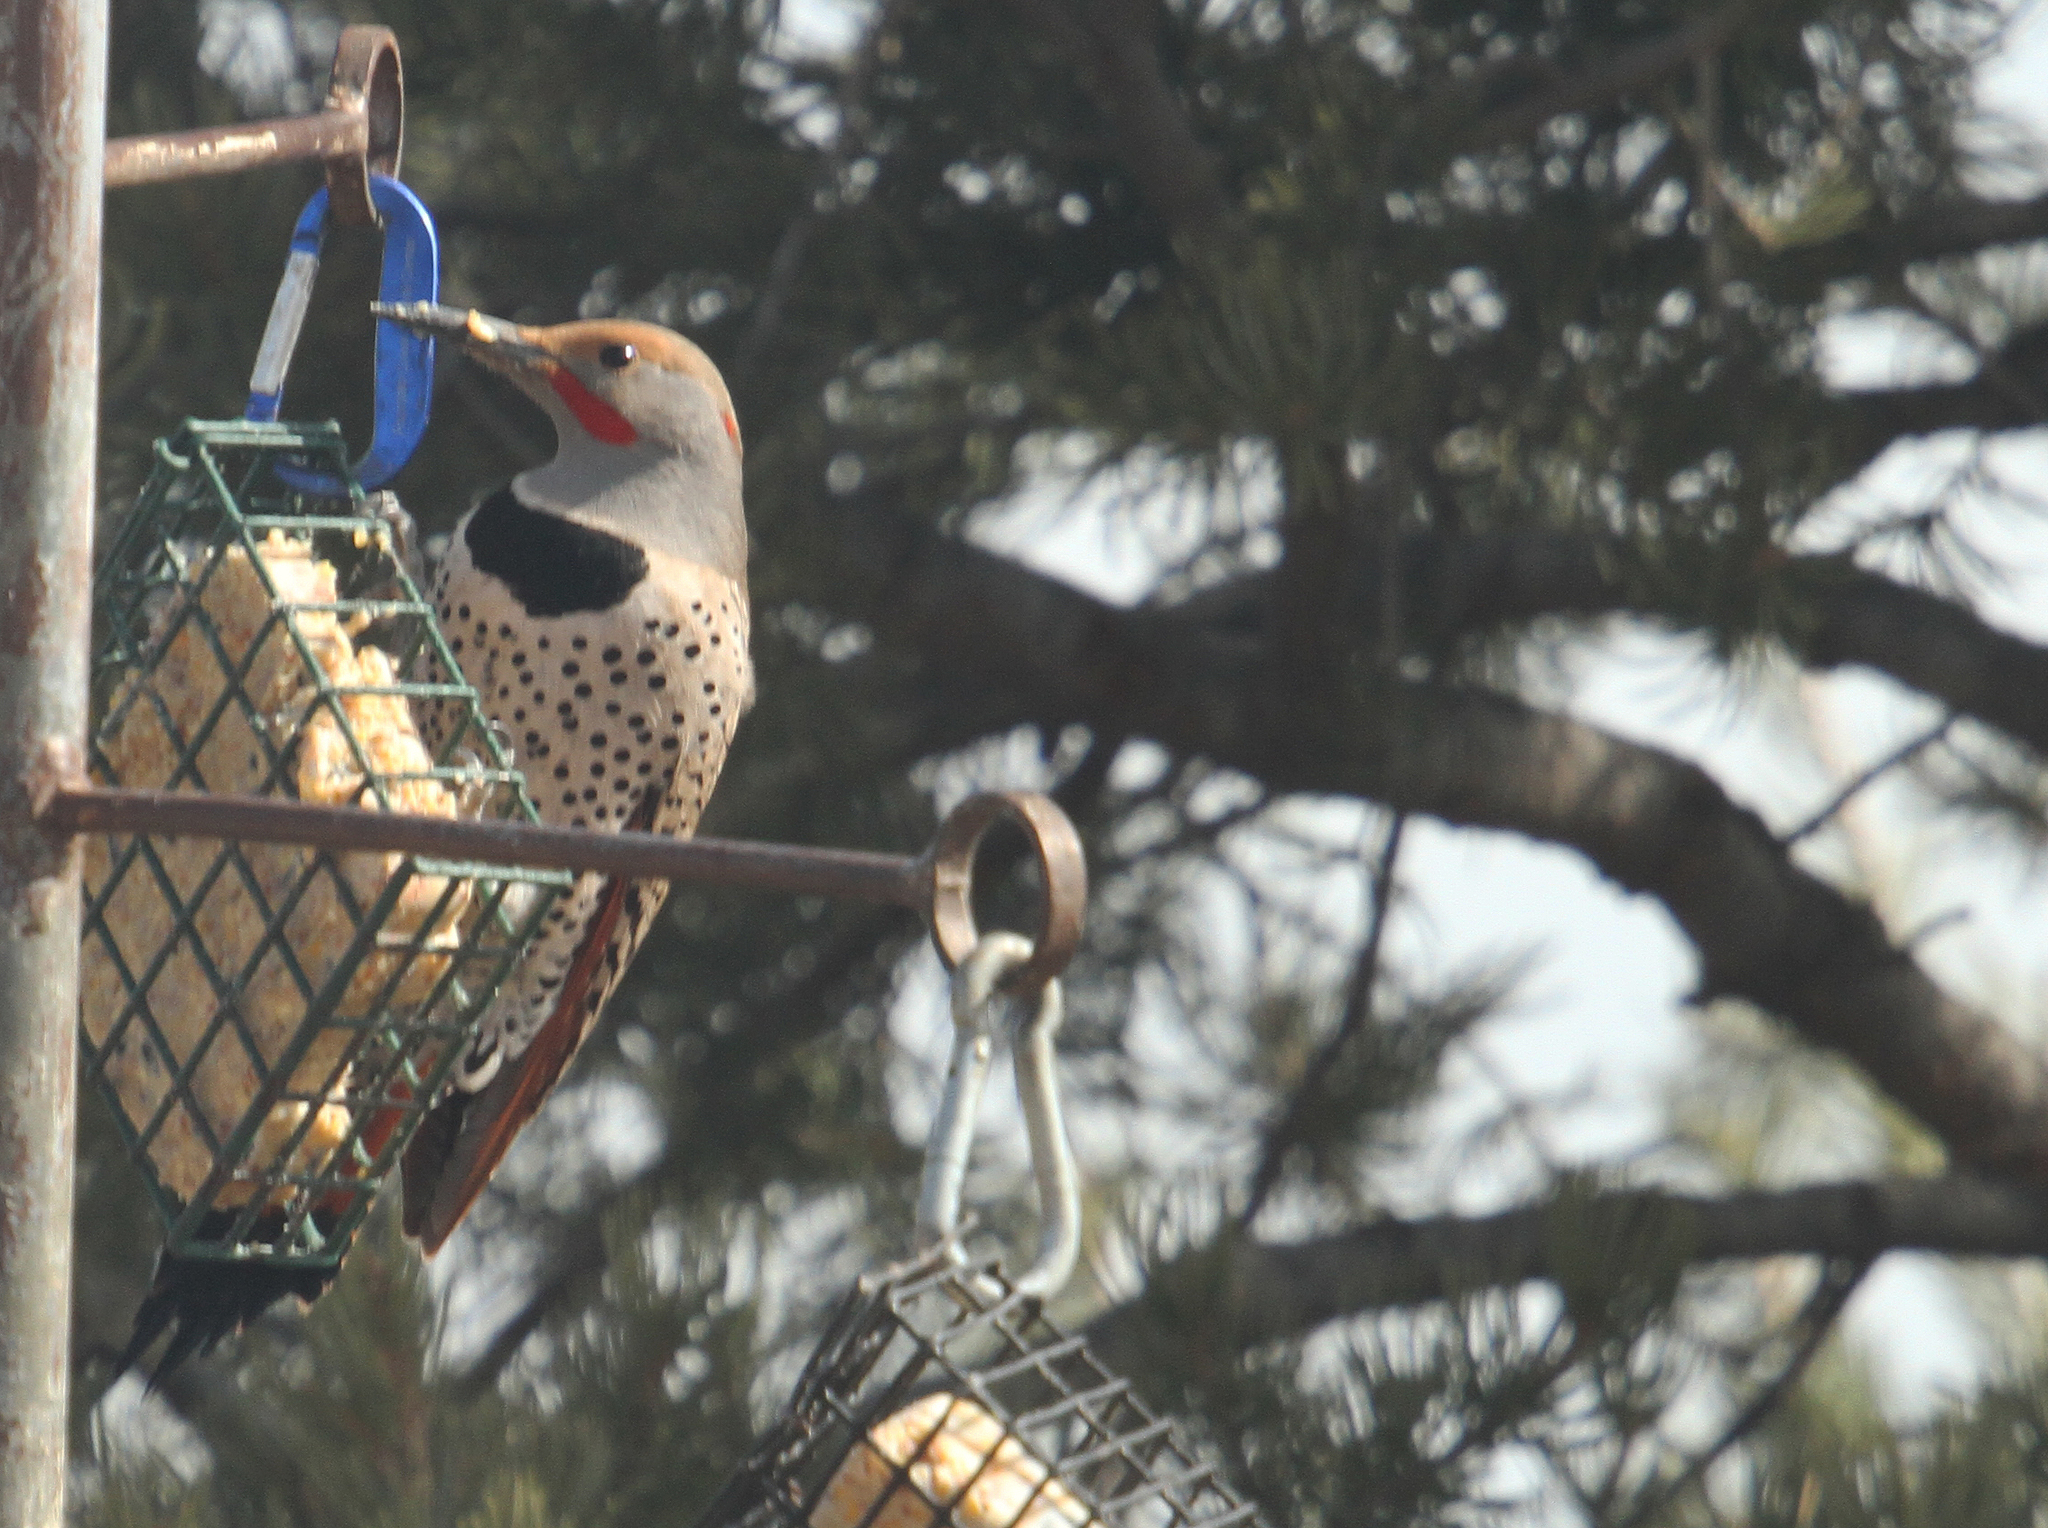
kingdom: Animalia
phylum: Chordata
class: Aves
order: Piciformes
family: Picidae
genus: Colaptes
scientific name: Colaptes auratus
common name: Northern flicker
